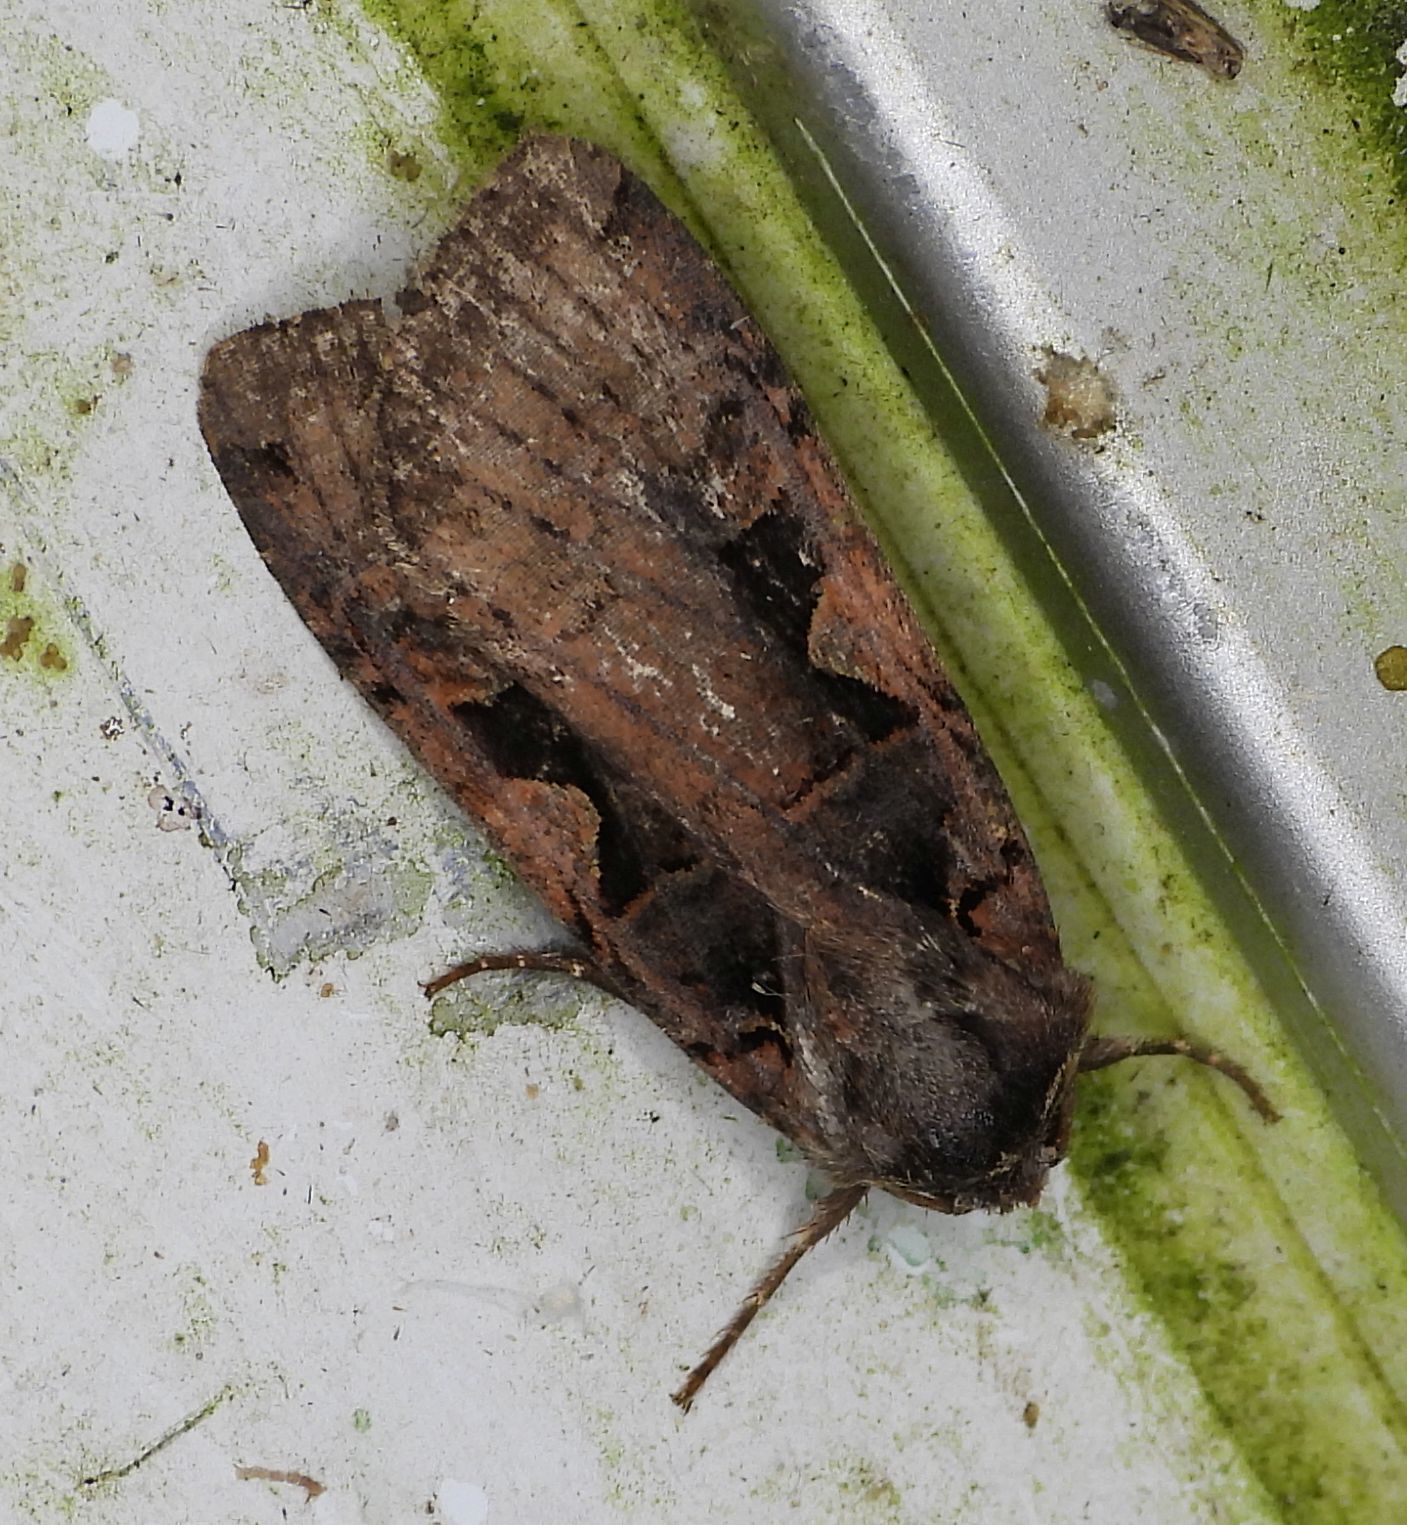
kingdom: Animalia
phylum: Arthropoda
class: Insecta
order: Lepidoptera
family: Noctuidae
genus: Xestia
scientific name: Xestia
